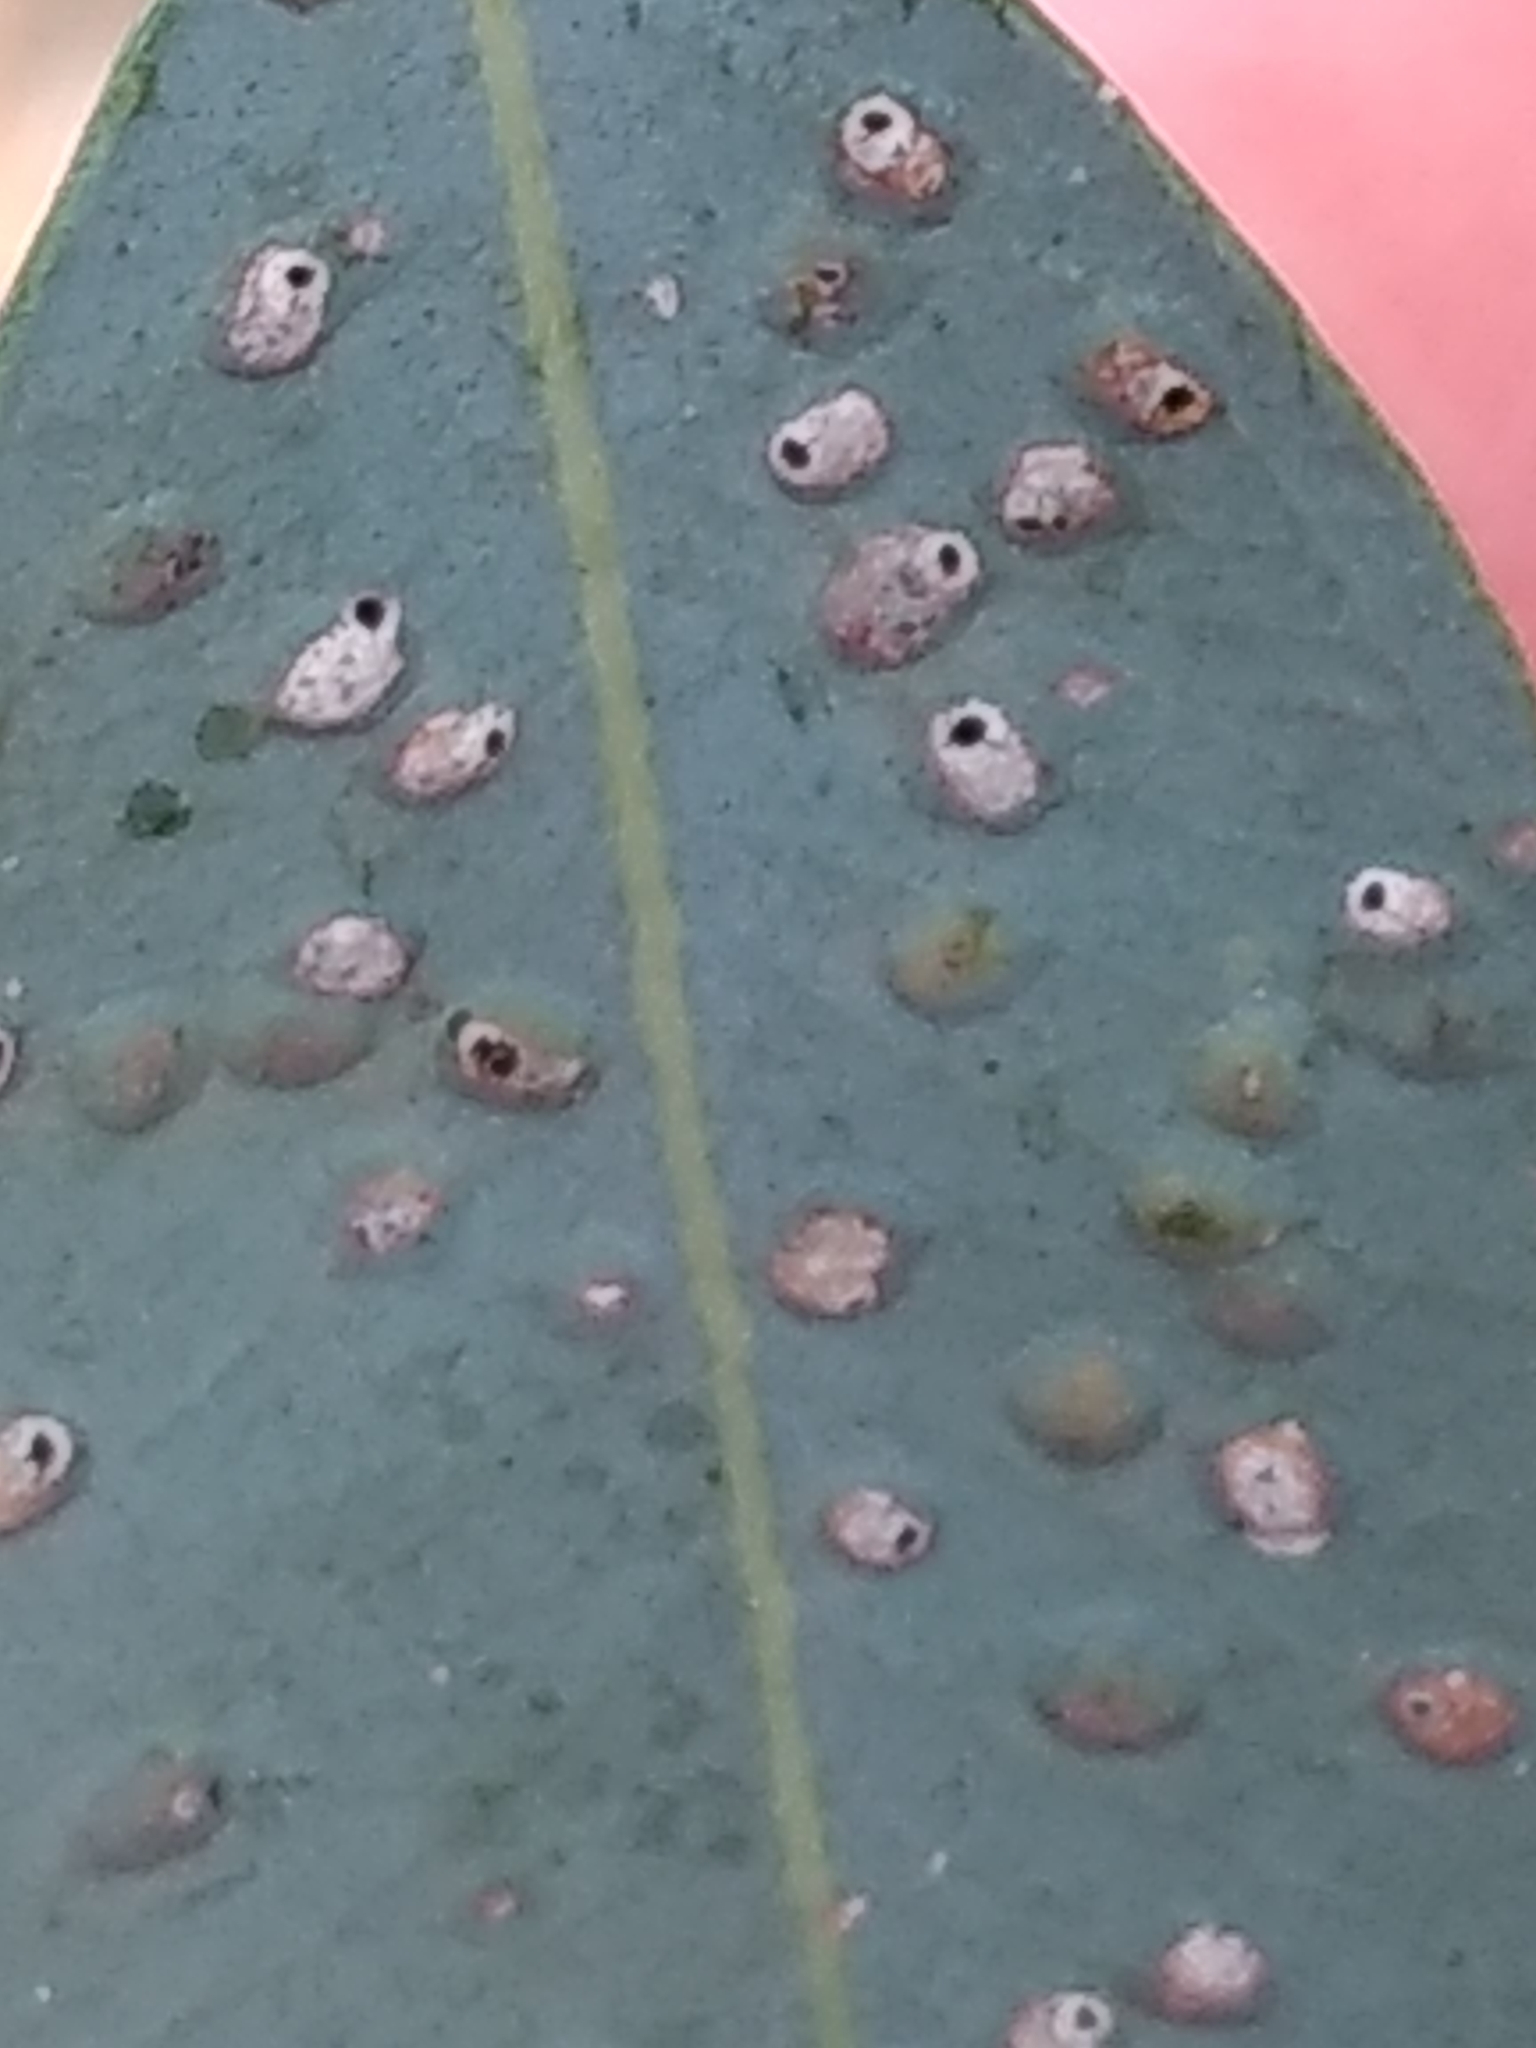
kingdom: Animalia
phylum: Arthropoda
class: Insecta
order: Hymenoptera
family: Eulophidae
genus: Ophelimus
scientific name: Ophelimus maskelli
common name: Gall wasp
